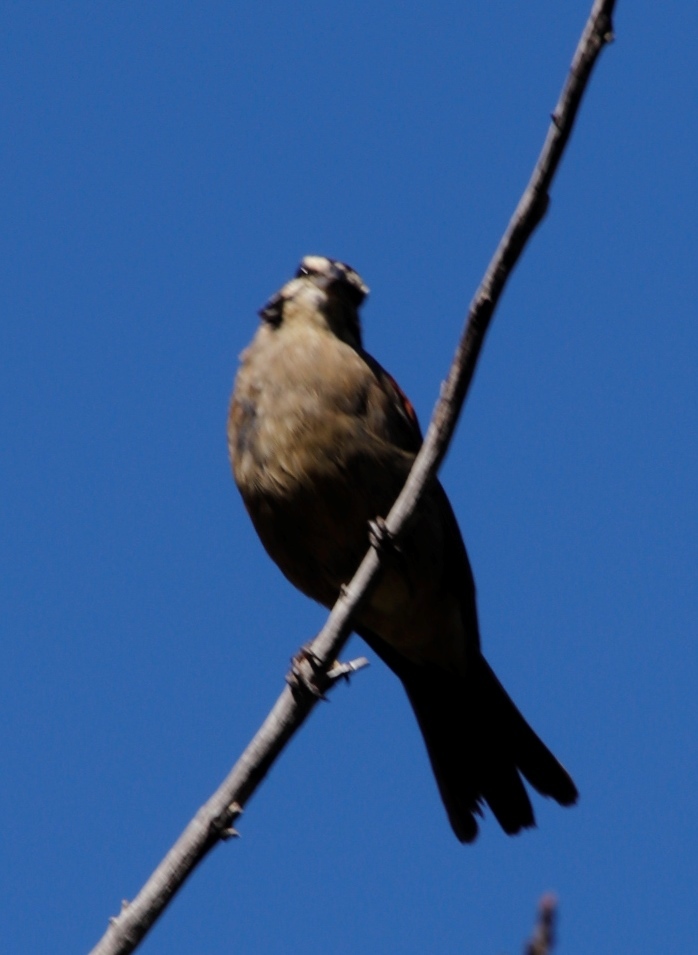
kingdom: Animalia
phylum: Chordata
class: Aves
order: Passeriformes
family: Emberizidae
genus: Emberiza
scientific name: Emberiza capensis
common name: Cape bunting
